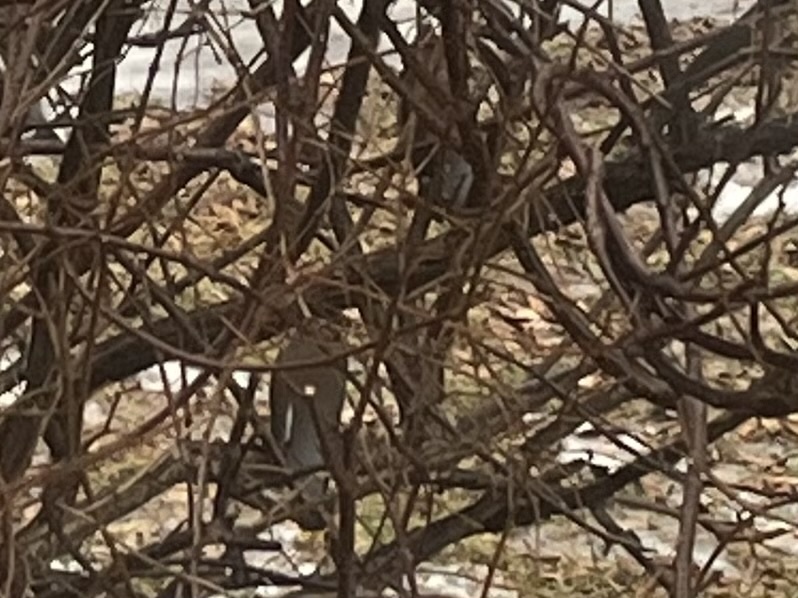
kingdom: Animalia
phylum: Chordata
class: Aves
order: Passeriformes
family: Bombycillidae
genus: Bombycilla
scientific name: Bombycilla cedrorum
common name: Cedar waxwing
